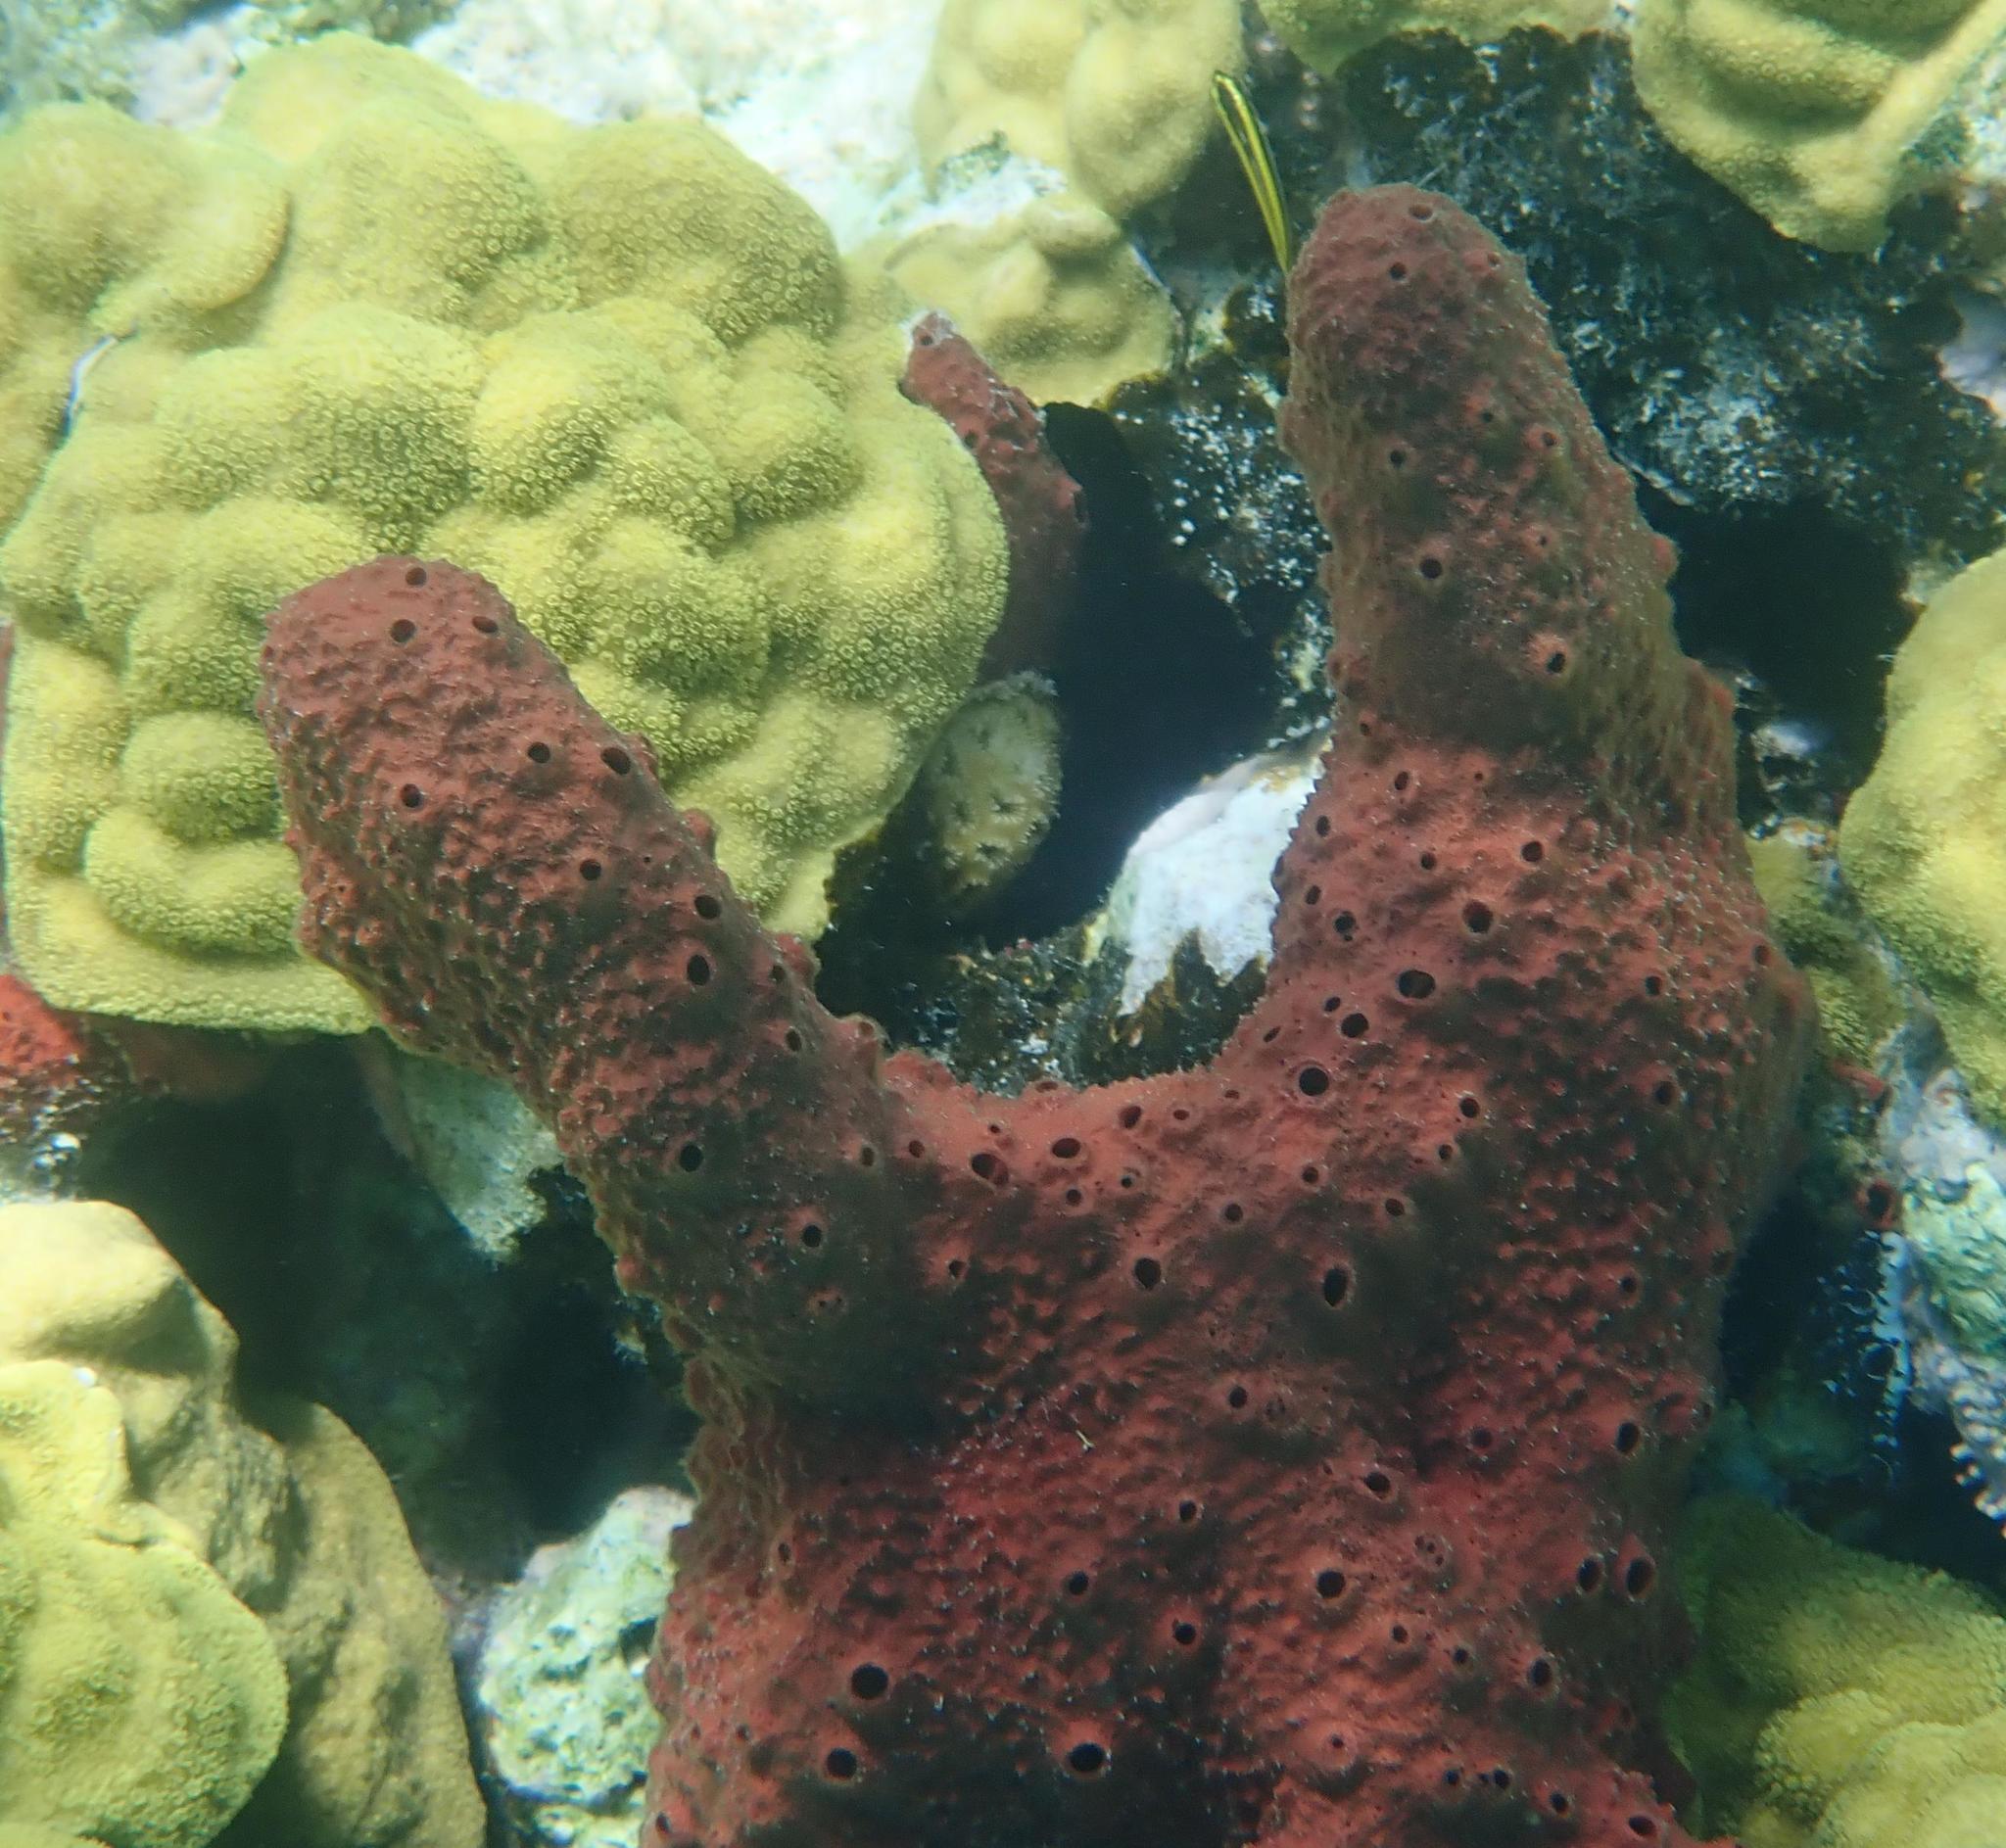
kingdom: Animalia
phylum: Porifera
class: Demospongiae
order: Haplosclerida
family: Niphatidae
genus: Amphimedon
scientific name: Amphimedon compressa
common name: Red sponge
